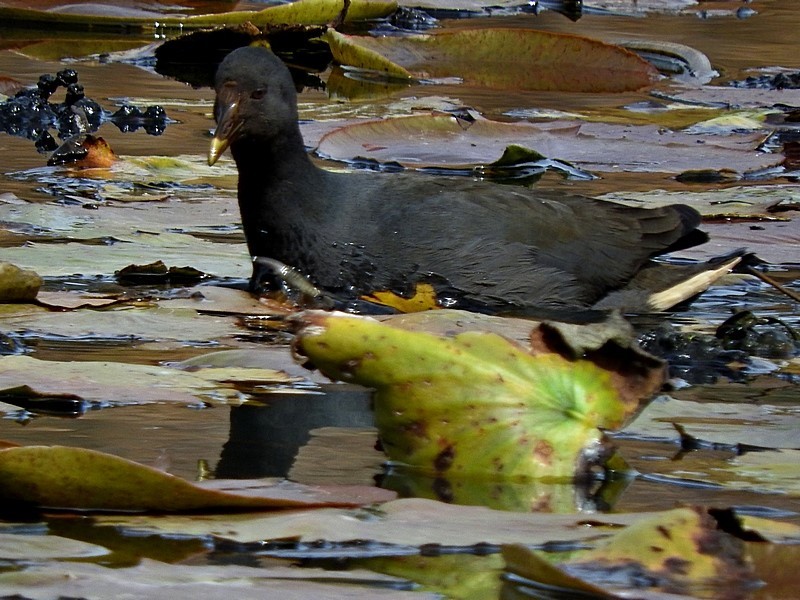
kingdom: Animalia
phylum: Chordata
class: Aves
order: Gruiformes
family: Rallidae
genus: Gallinula
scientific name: Gallinula tenebrosa
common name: Dusky moorhen
